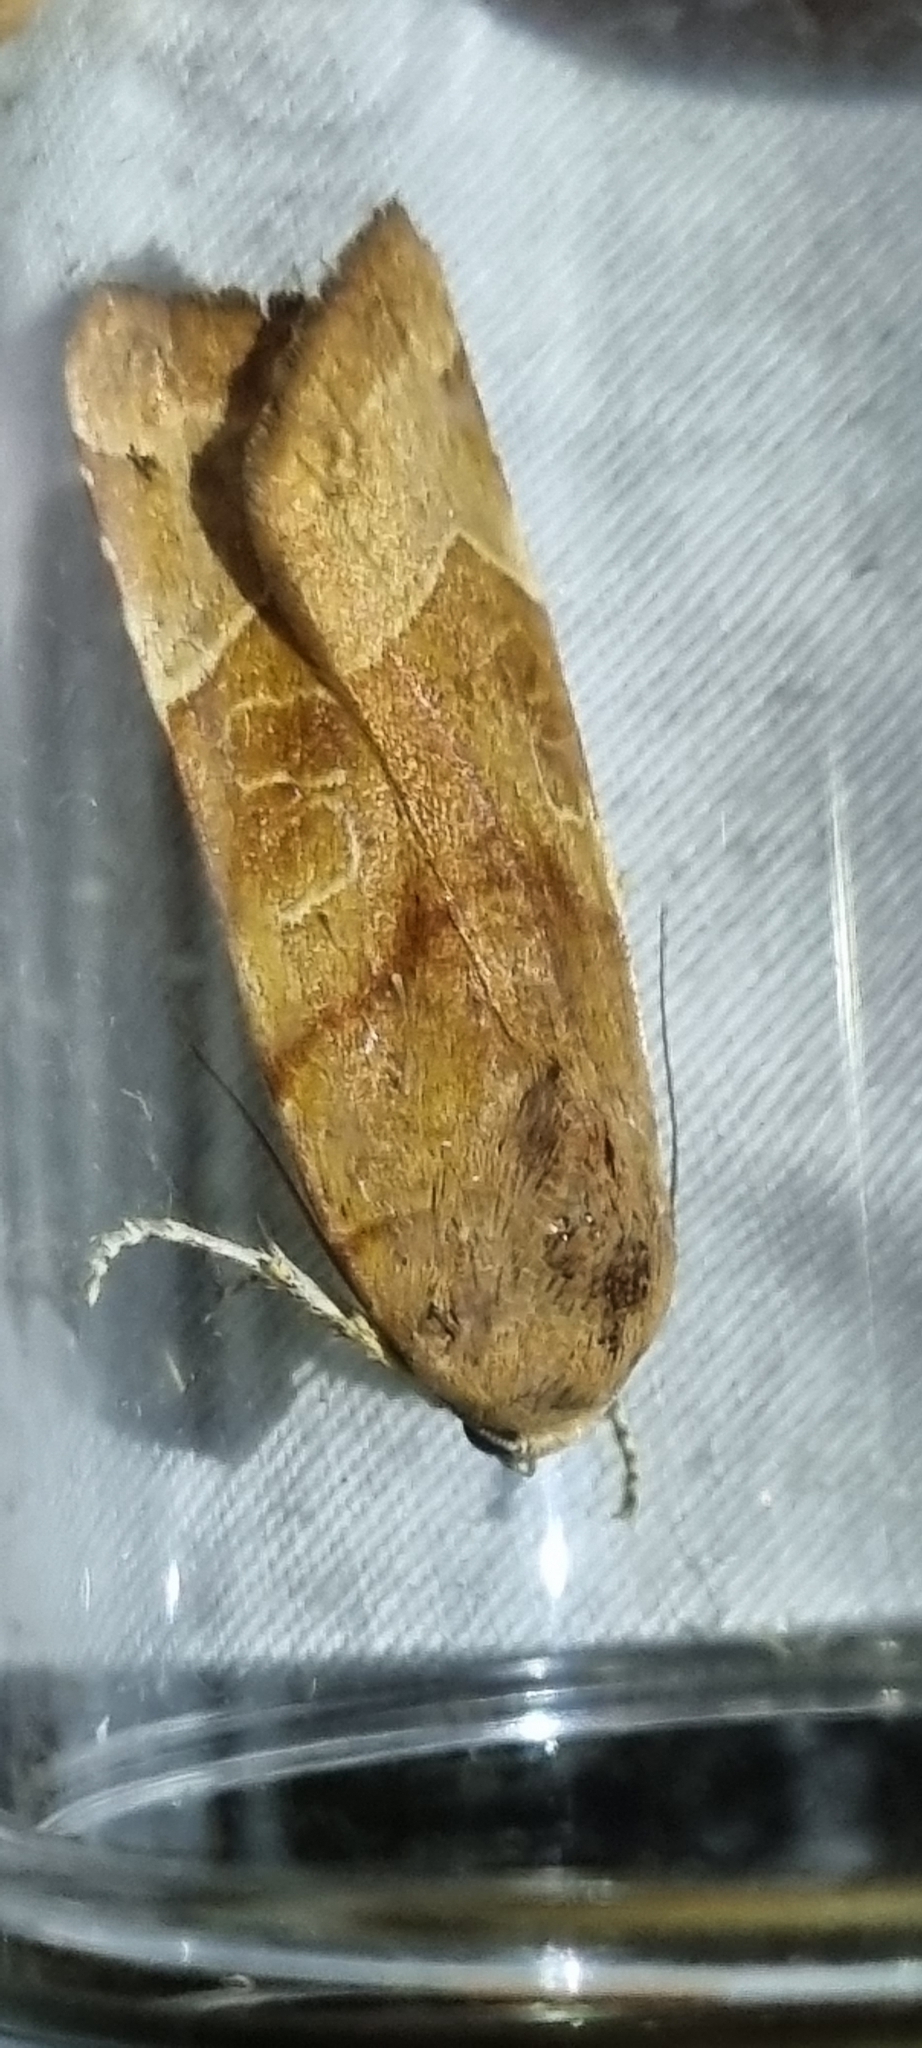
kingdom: Animalia
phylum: Arthropoda
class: Insecta
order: Lepidoptera
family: Noctuidae
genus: Noctua
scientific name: Noctua fimbriata
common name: Broad-bordered yellow underwing
